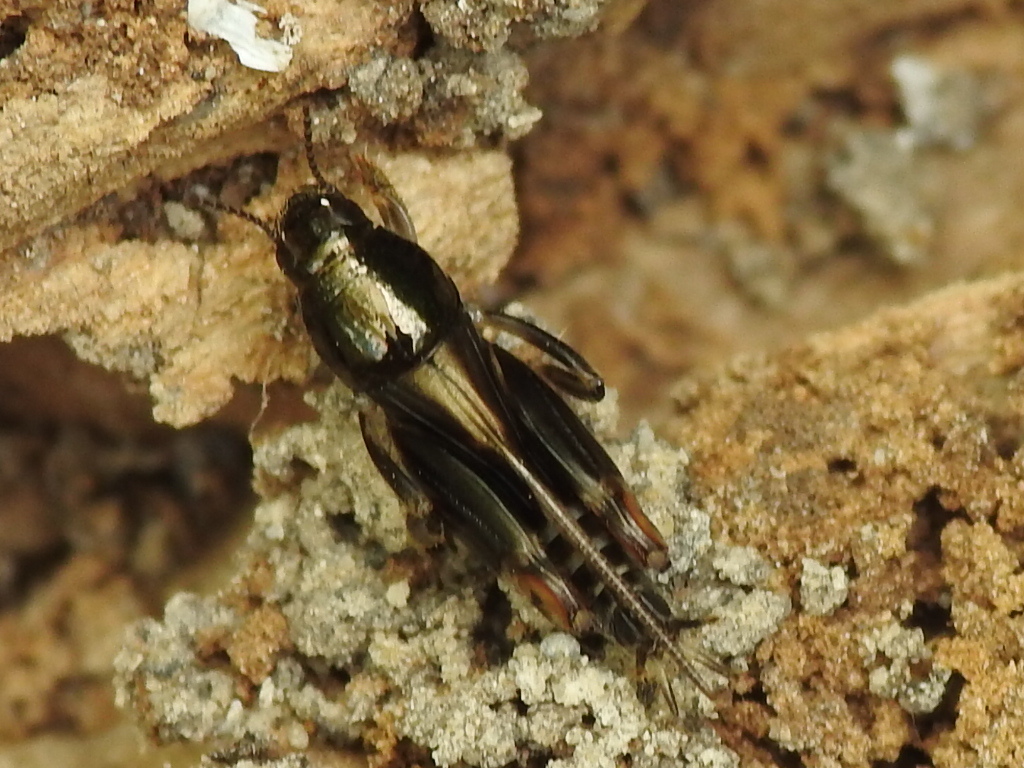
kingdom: Animalia
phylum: Arthropoda
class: Insecta
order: Orthoptera
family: Tridactylidae
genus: Neotridactylus
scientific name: Neotridactylus apicialis
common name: Larger pygmy locust
